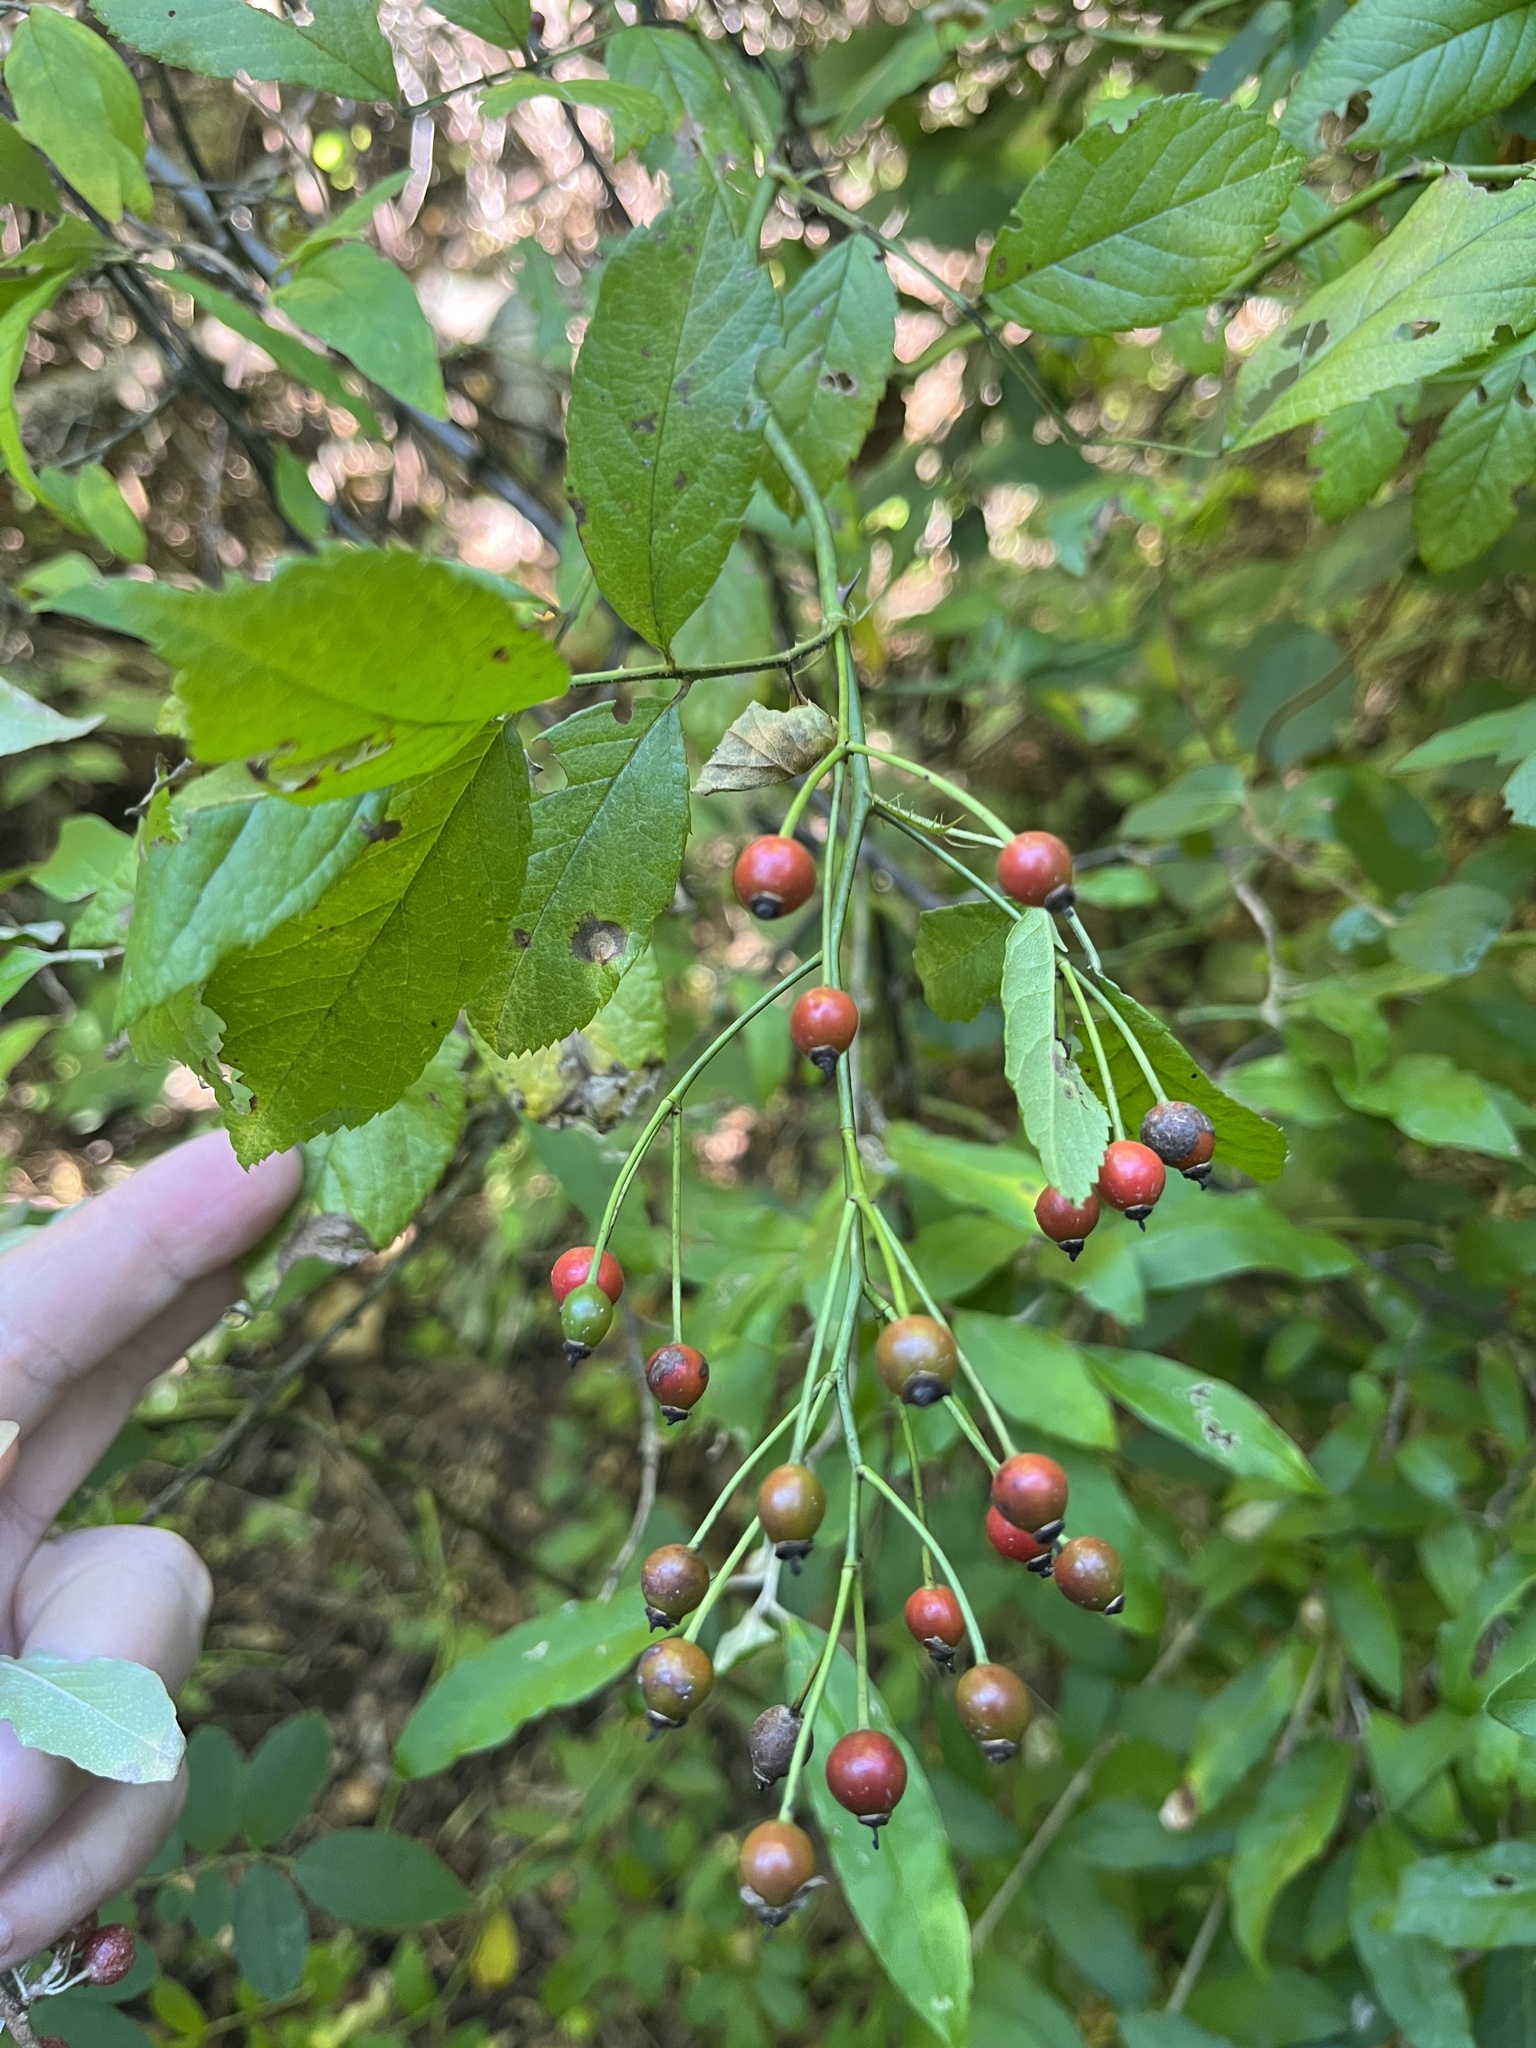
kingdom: Plantae
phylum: Tracheophyta
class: Magnoliopsida
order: Rosales
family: Rosaceae
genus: Rosa
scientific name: Rosa multiflora
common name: Multiflora rose
